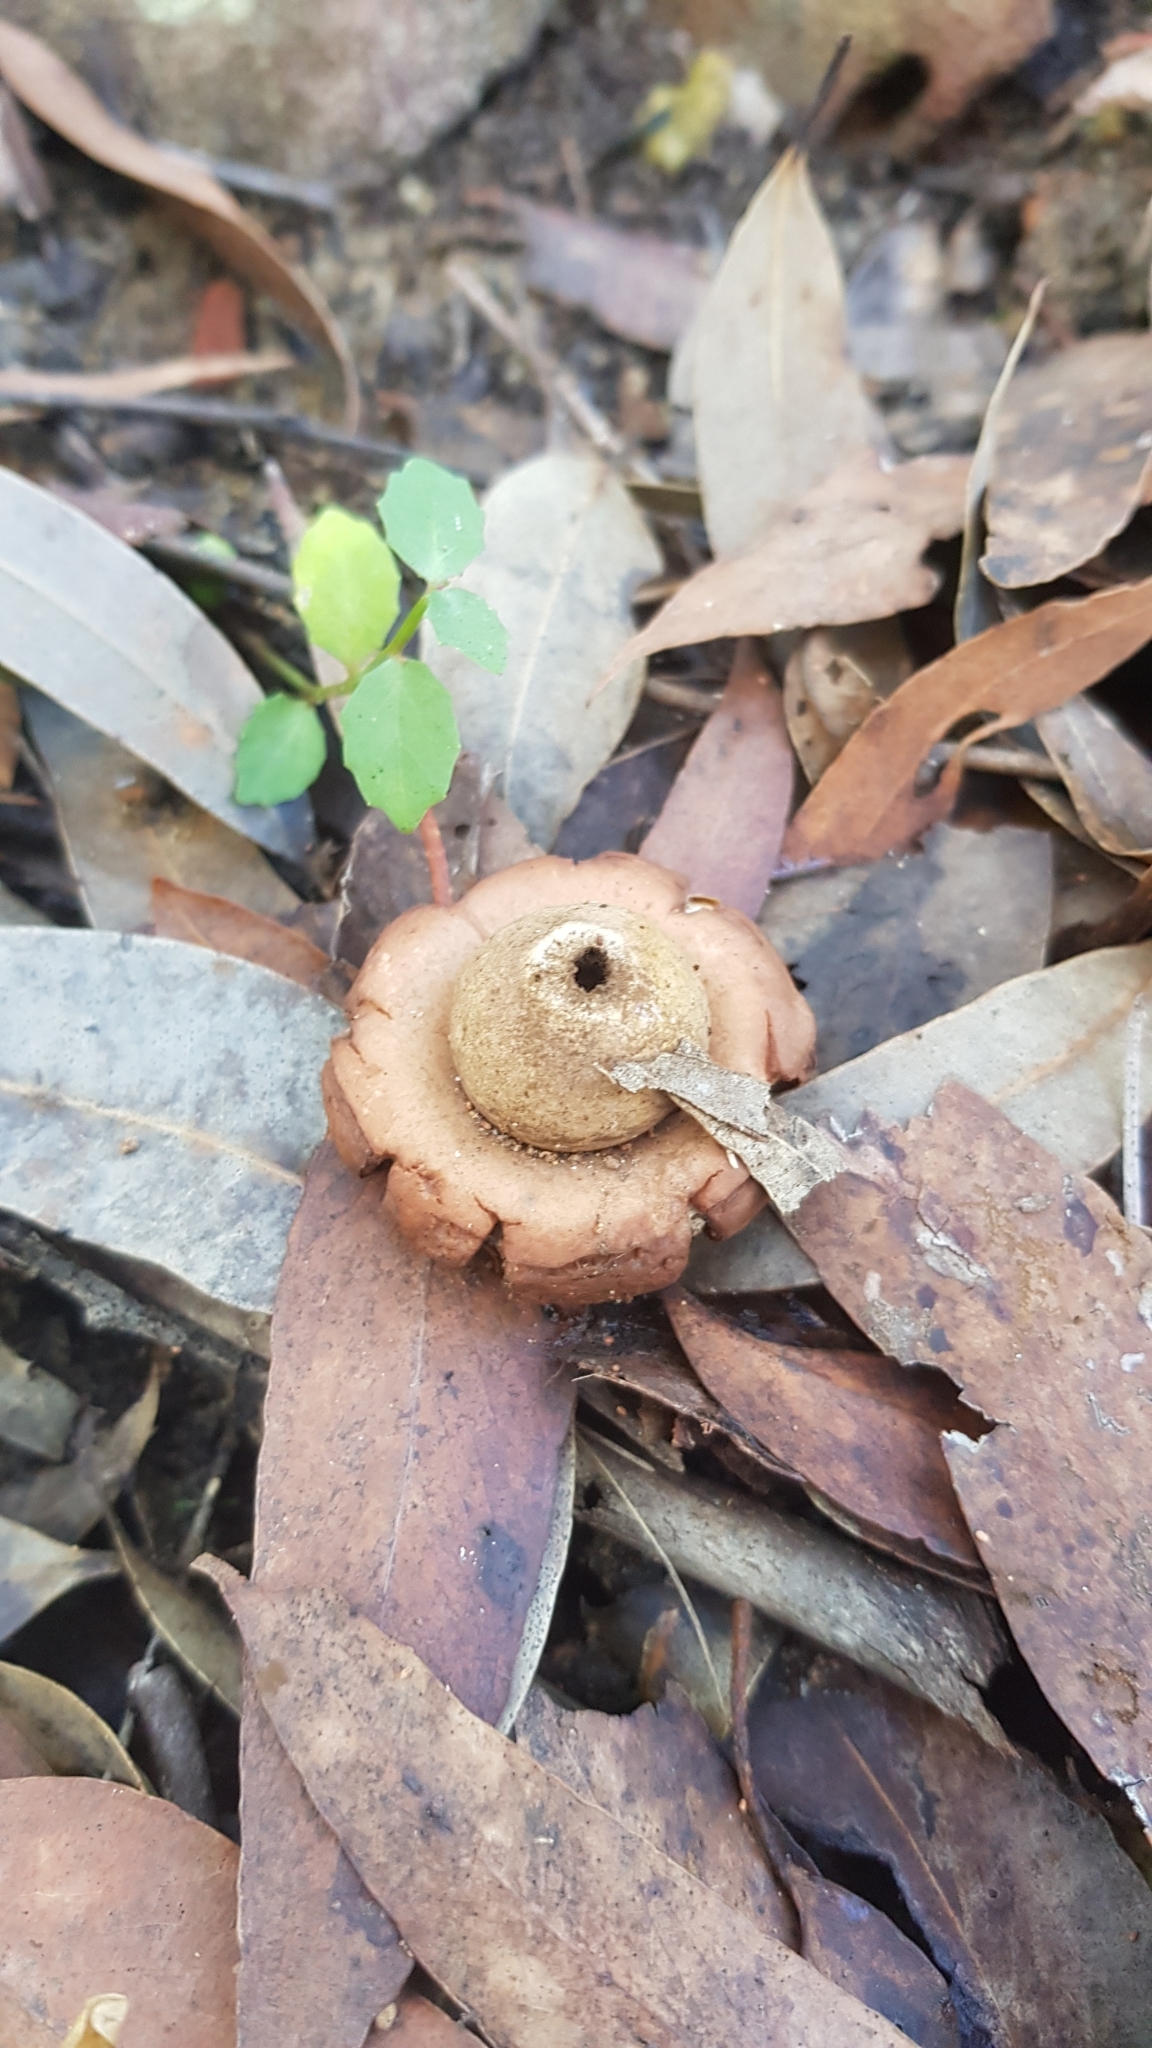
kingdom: Fungi
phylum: Basidiomycota
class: Agaricomycetes
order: Geastrales
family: Geastraceae
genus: Geastrum
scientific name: Geastrum saccatum
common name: Rounded earthstar
